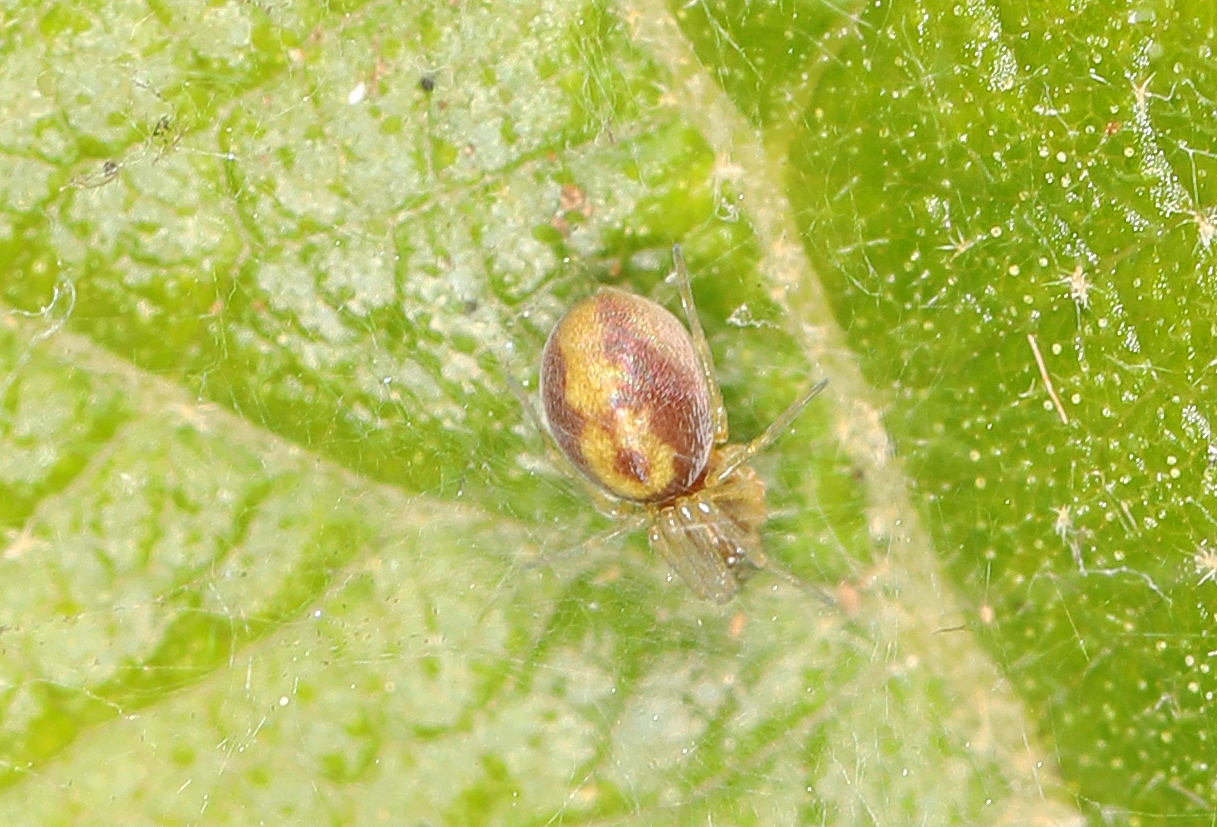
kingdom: Animalia
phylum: Arthropoda
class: Arachnida
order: Araneae
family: Dictynidae
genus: Emblyna
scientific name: Emblyna florens
